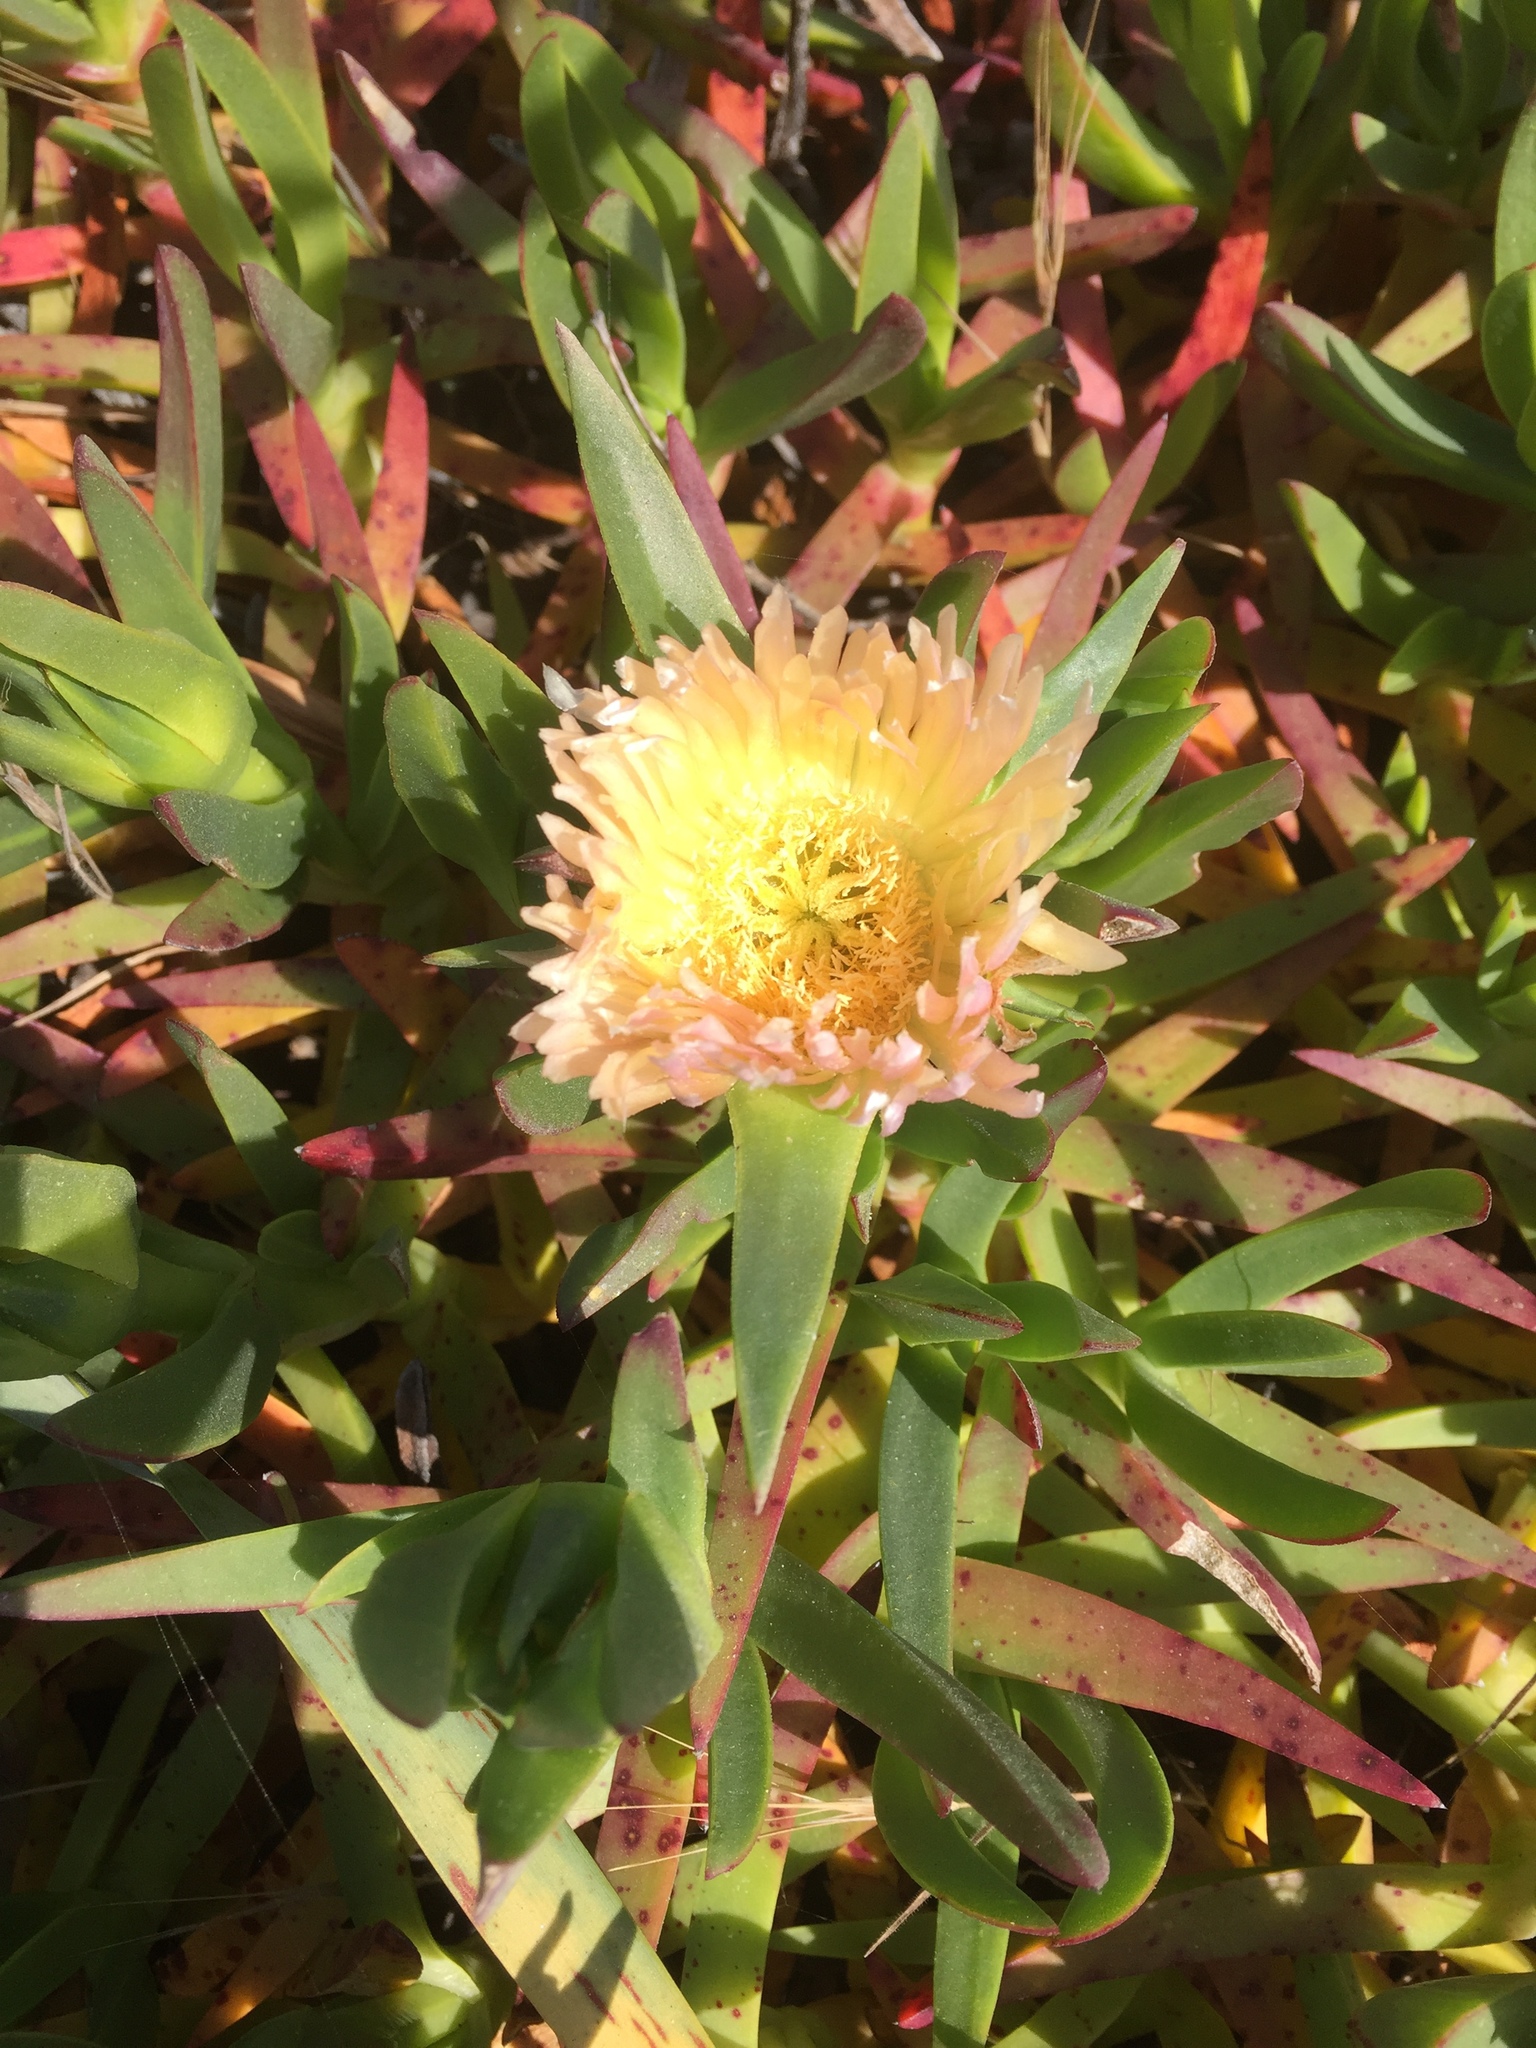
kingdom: Plantae
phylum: Tracheophyta
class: Magnoliopsida
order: Caryophyllales
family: Aizoaceae
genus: Carpobrotus
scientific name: Carpobrotus edulis
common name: Hottentot-fig
